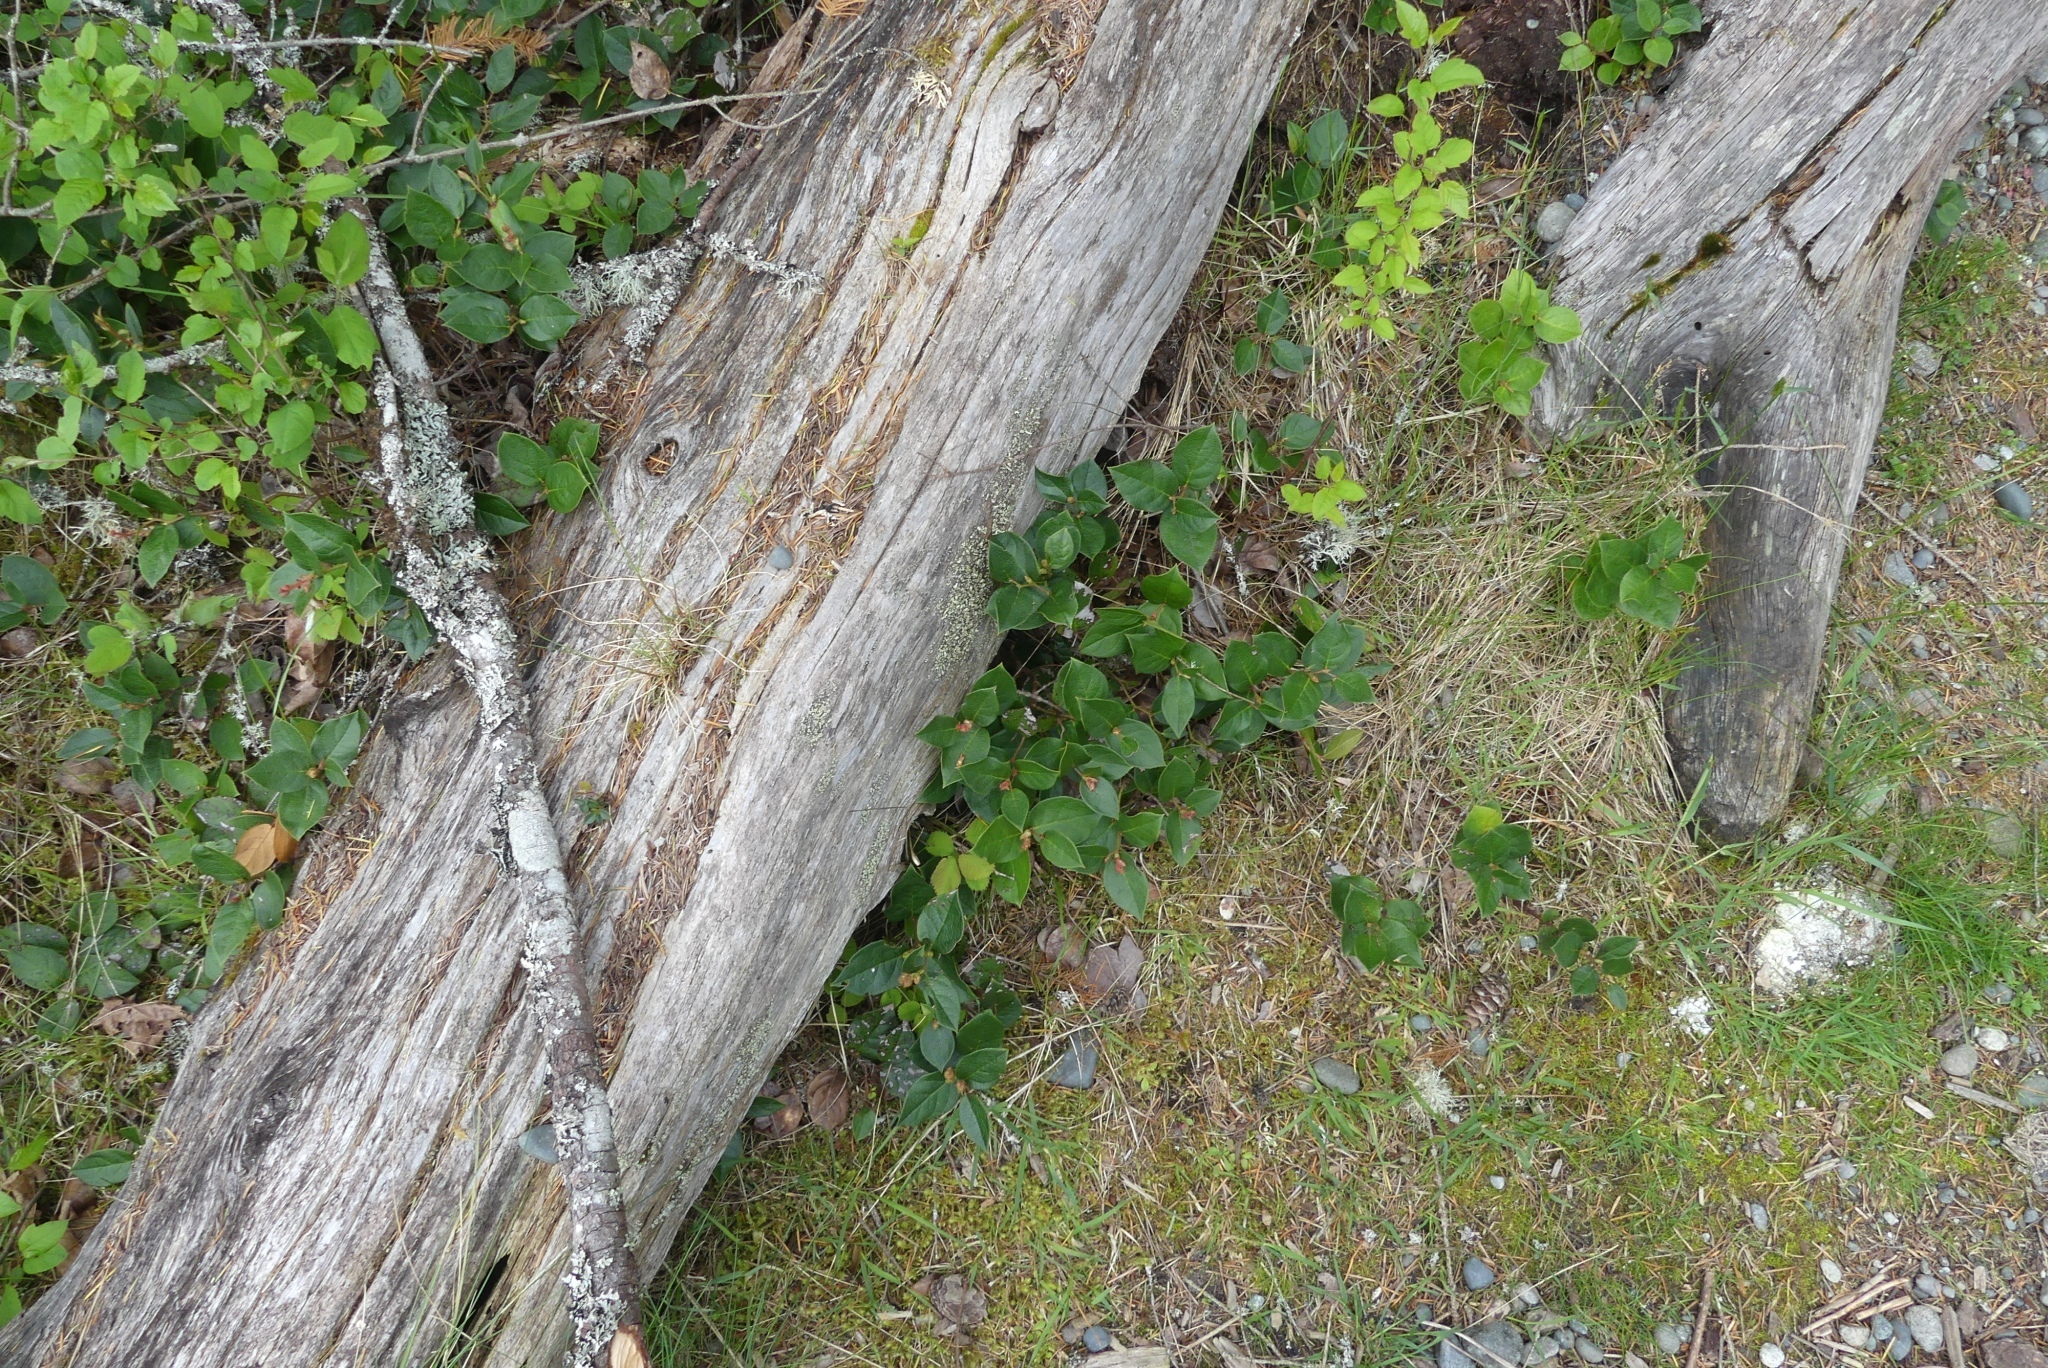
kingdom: Plantae
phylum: Tracheophyta
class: Magnoliopsida
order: Ericales
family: Ericaceae
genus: Gaultheria
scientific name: Gaultheria shallon
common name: Shallon
